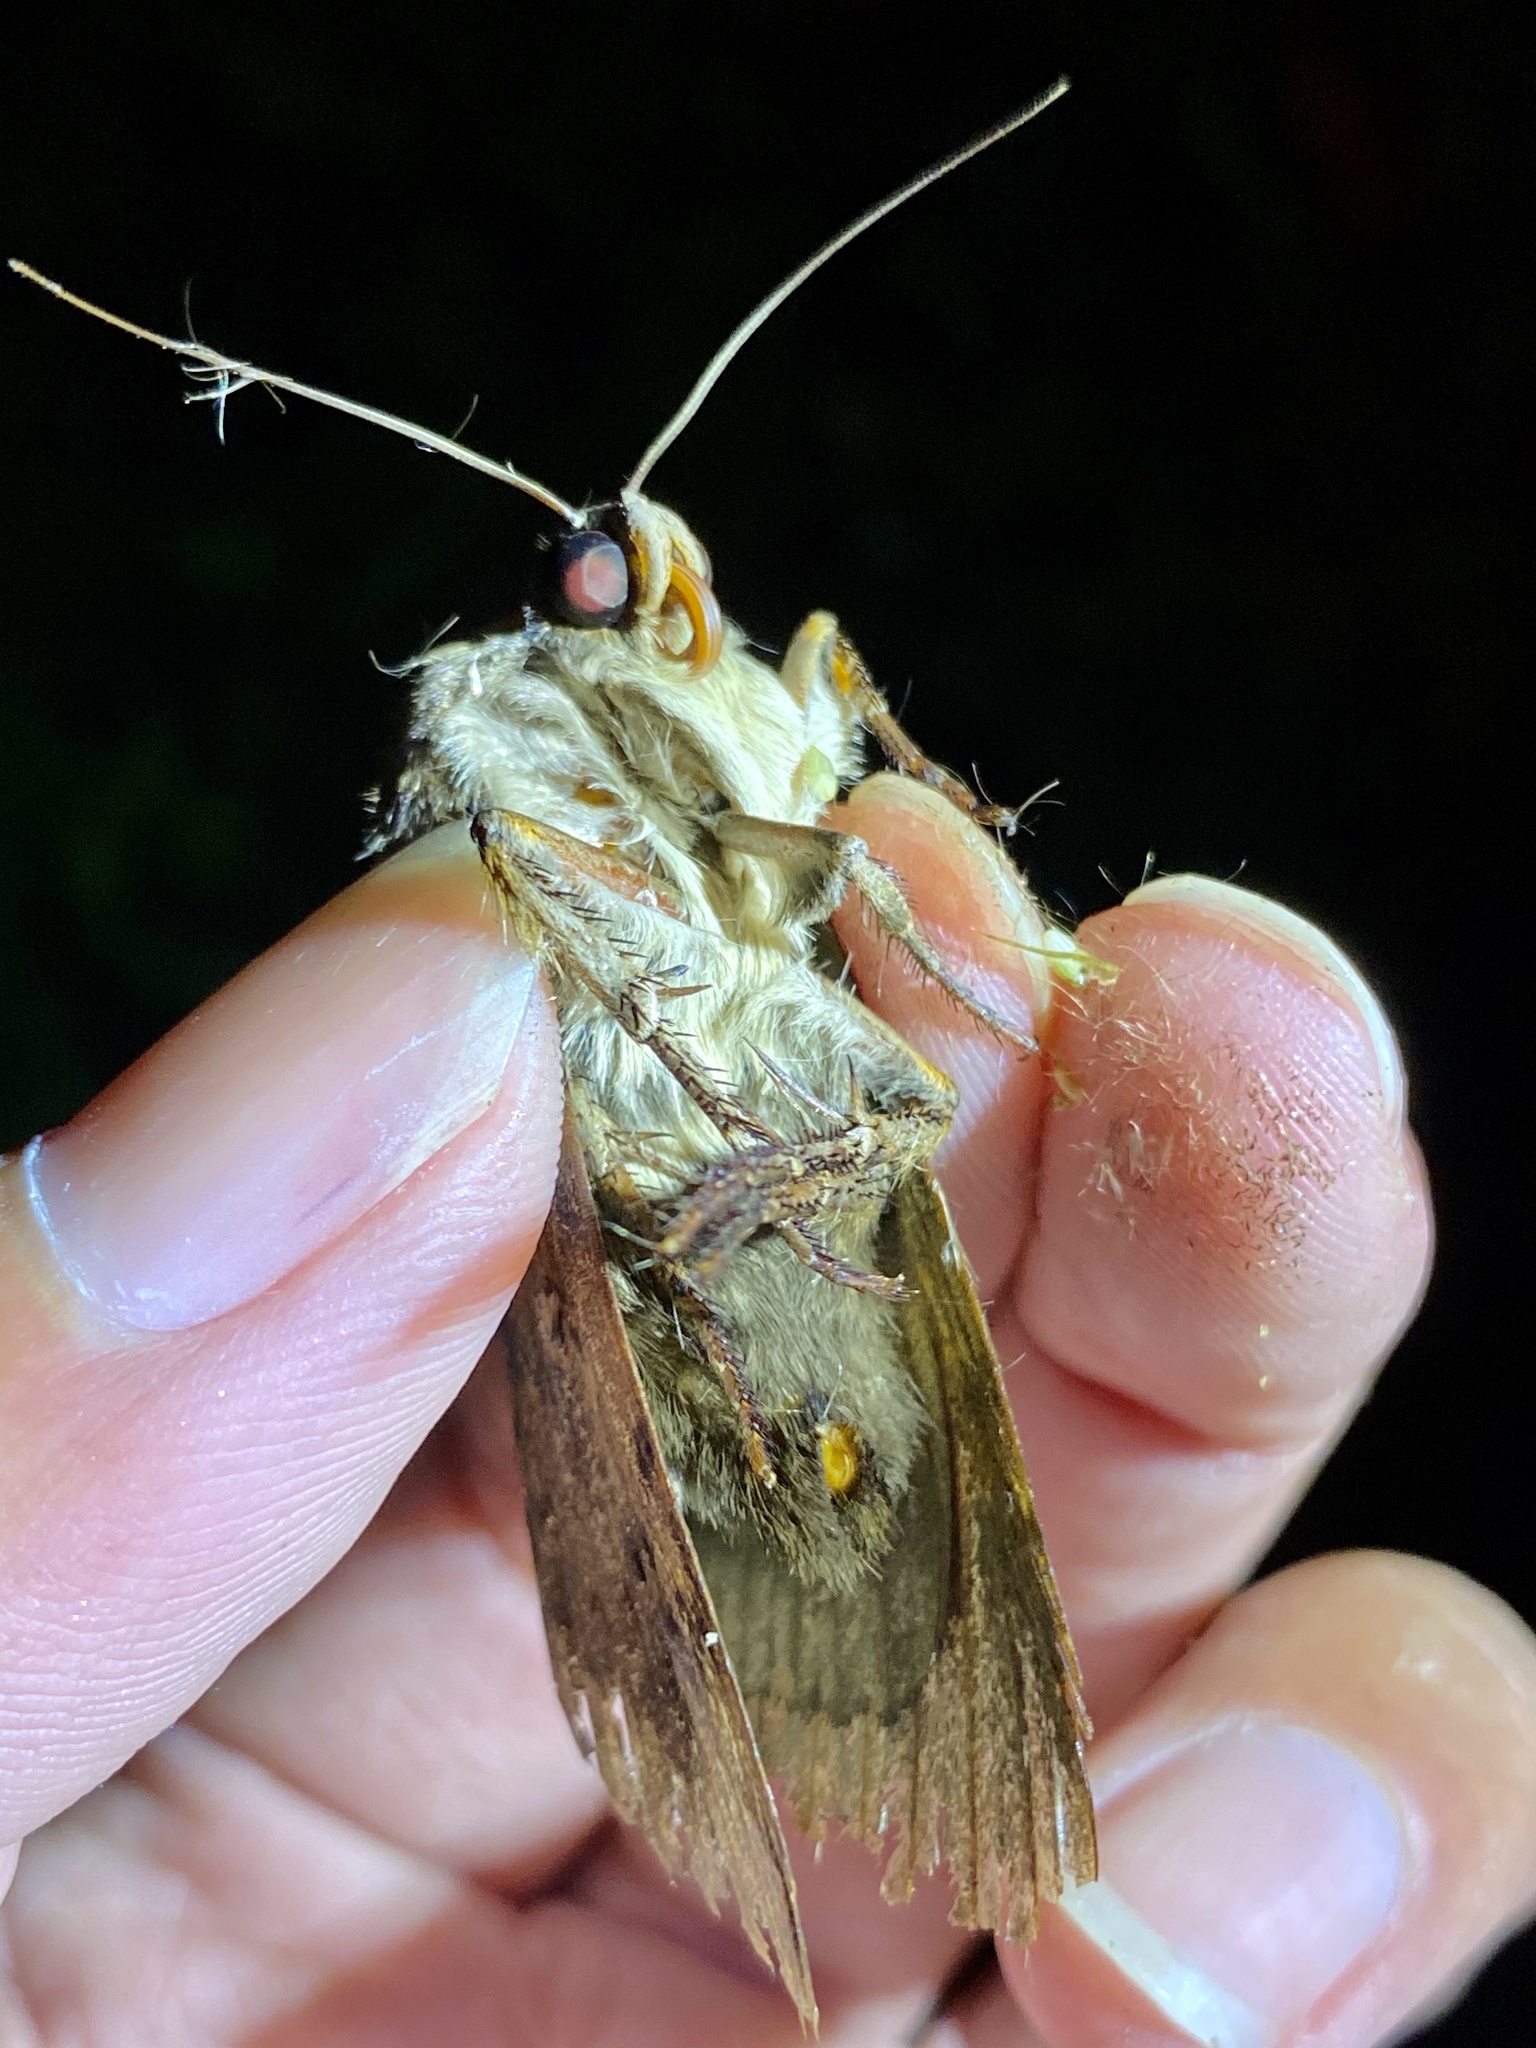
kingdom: Animalia
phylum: Arthropoda
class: Insecta
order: Lepidoptera
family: Erebidae
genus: Arcte
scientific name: Arcte coerula
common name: Ramie moth
